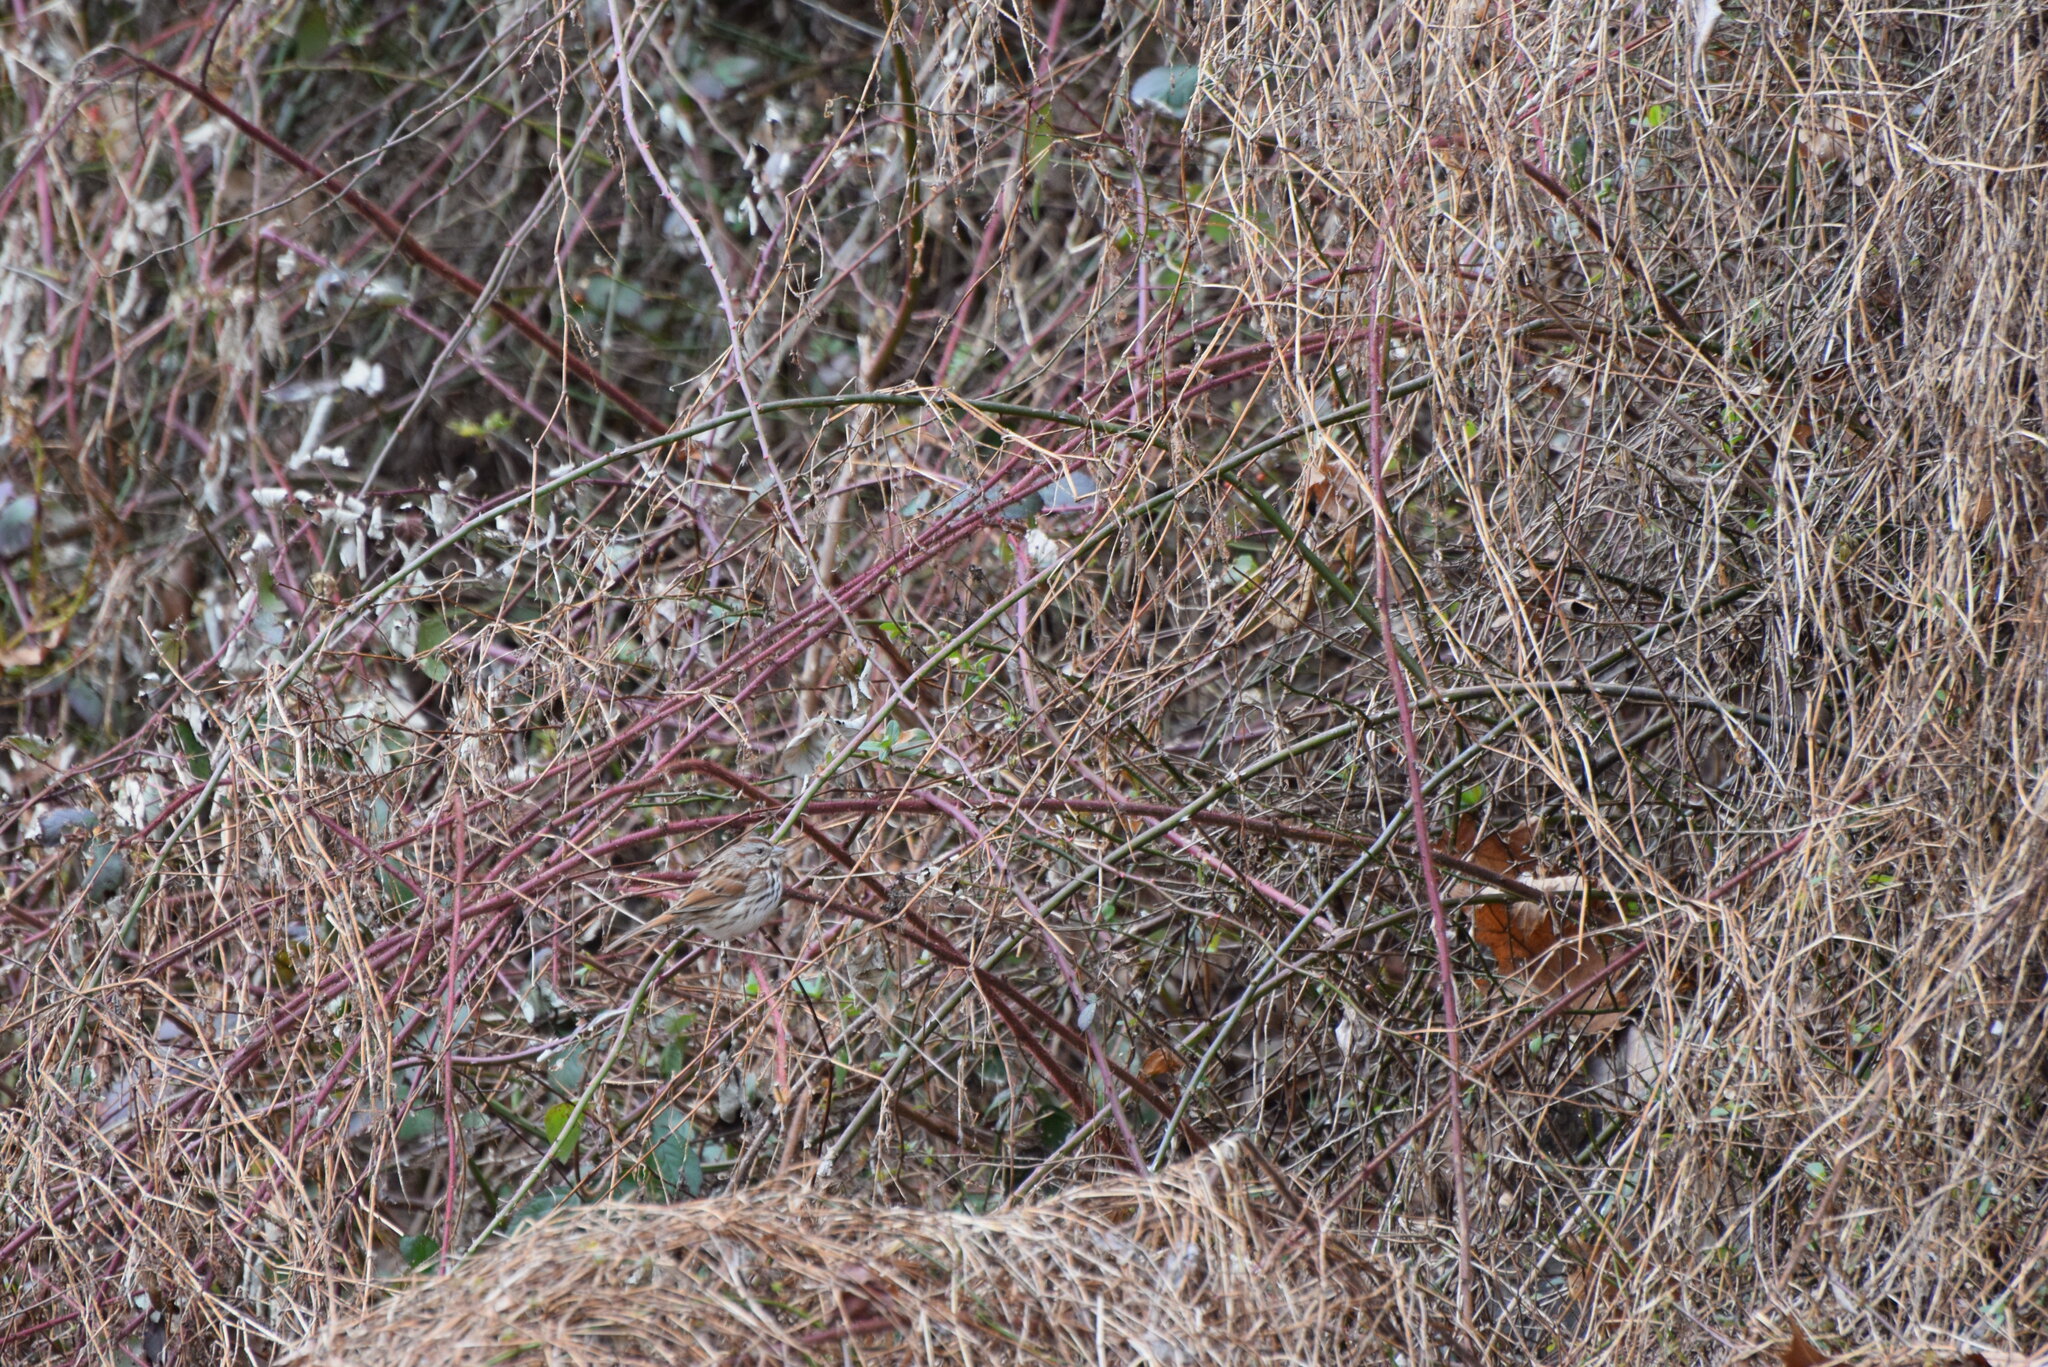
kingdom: Animalia
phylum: Chordata
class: Aves
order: Passeriformes
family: Passerellidae
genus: Melospiza
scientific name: Melospiza melodia
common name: Song sparrow
